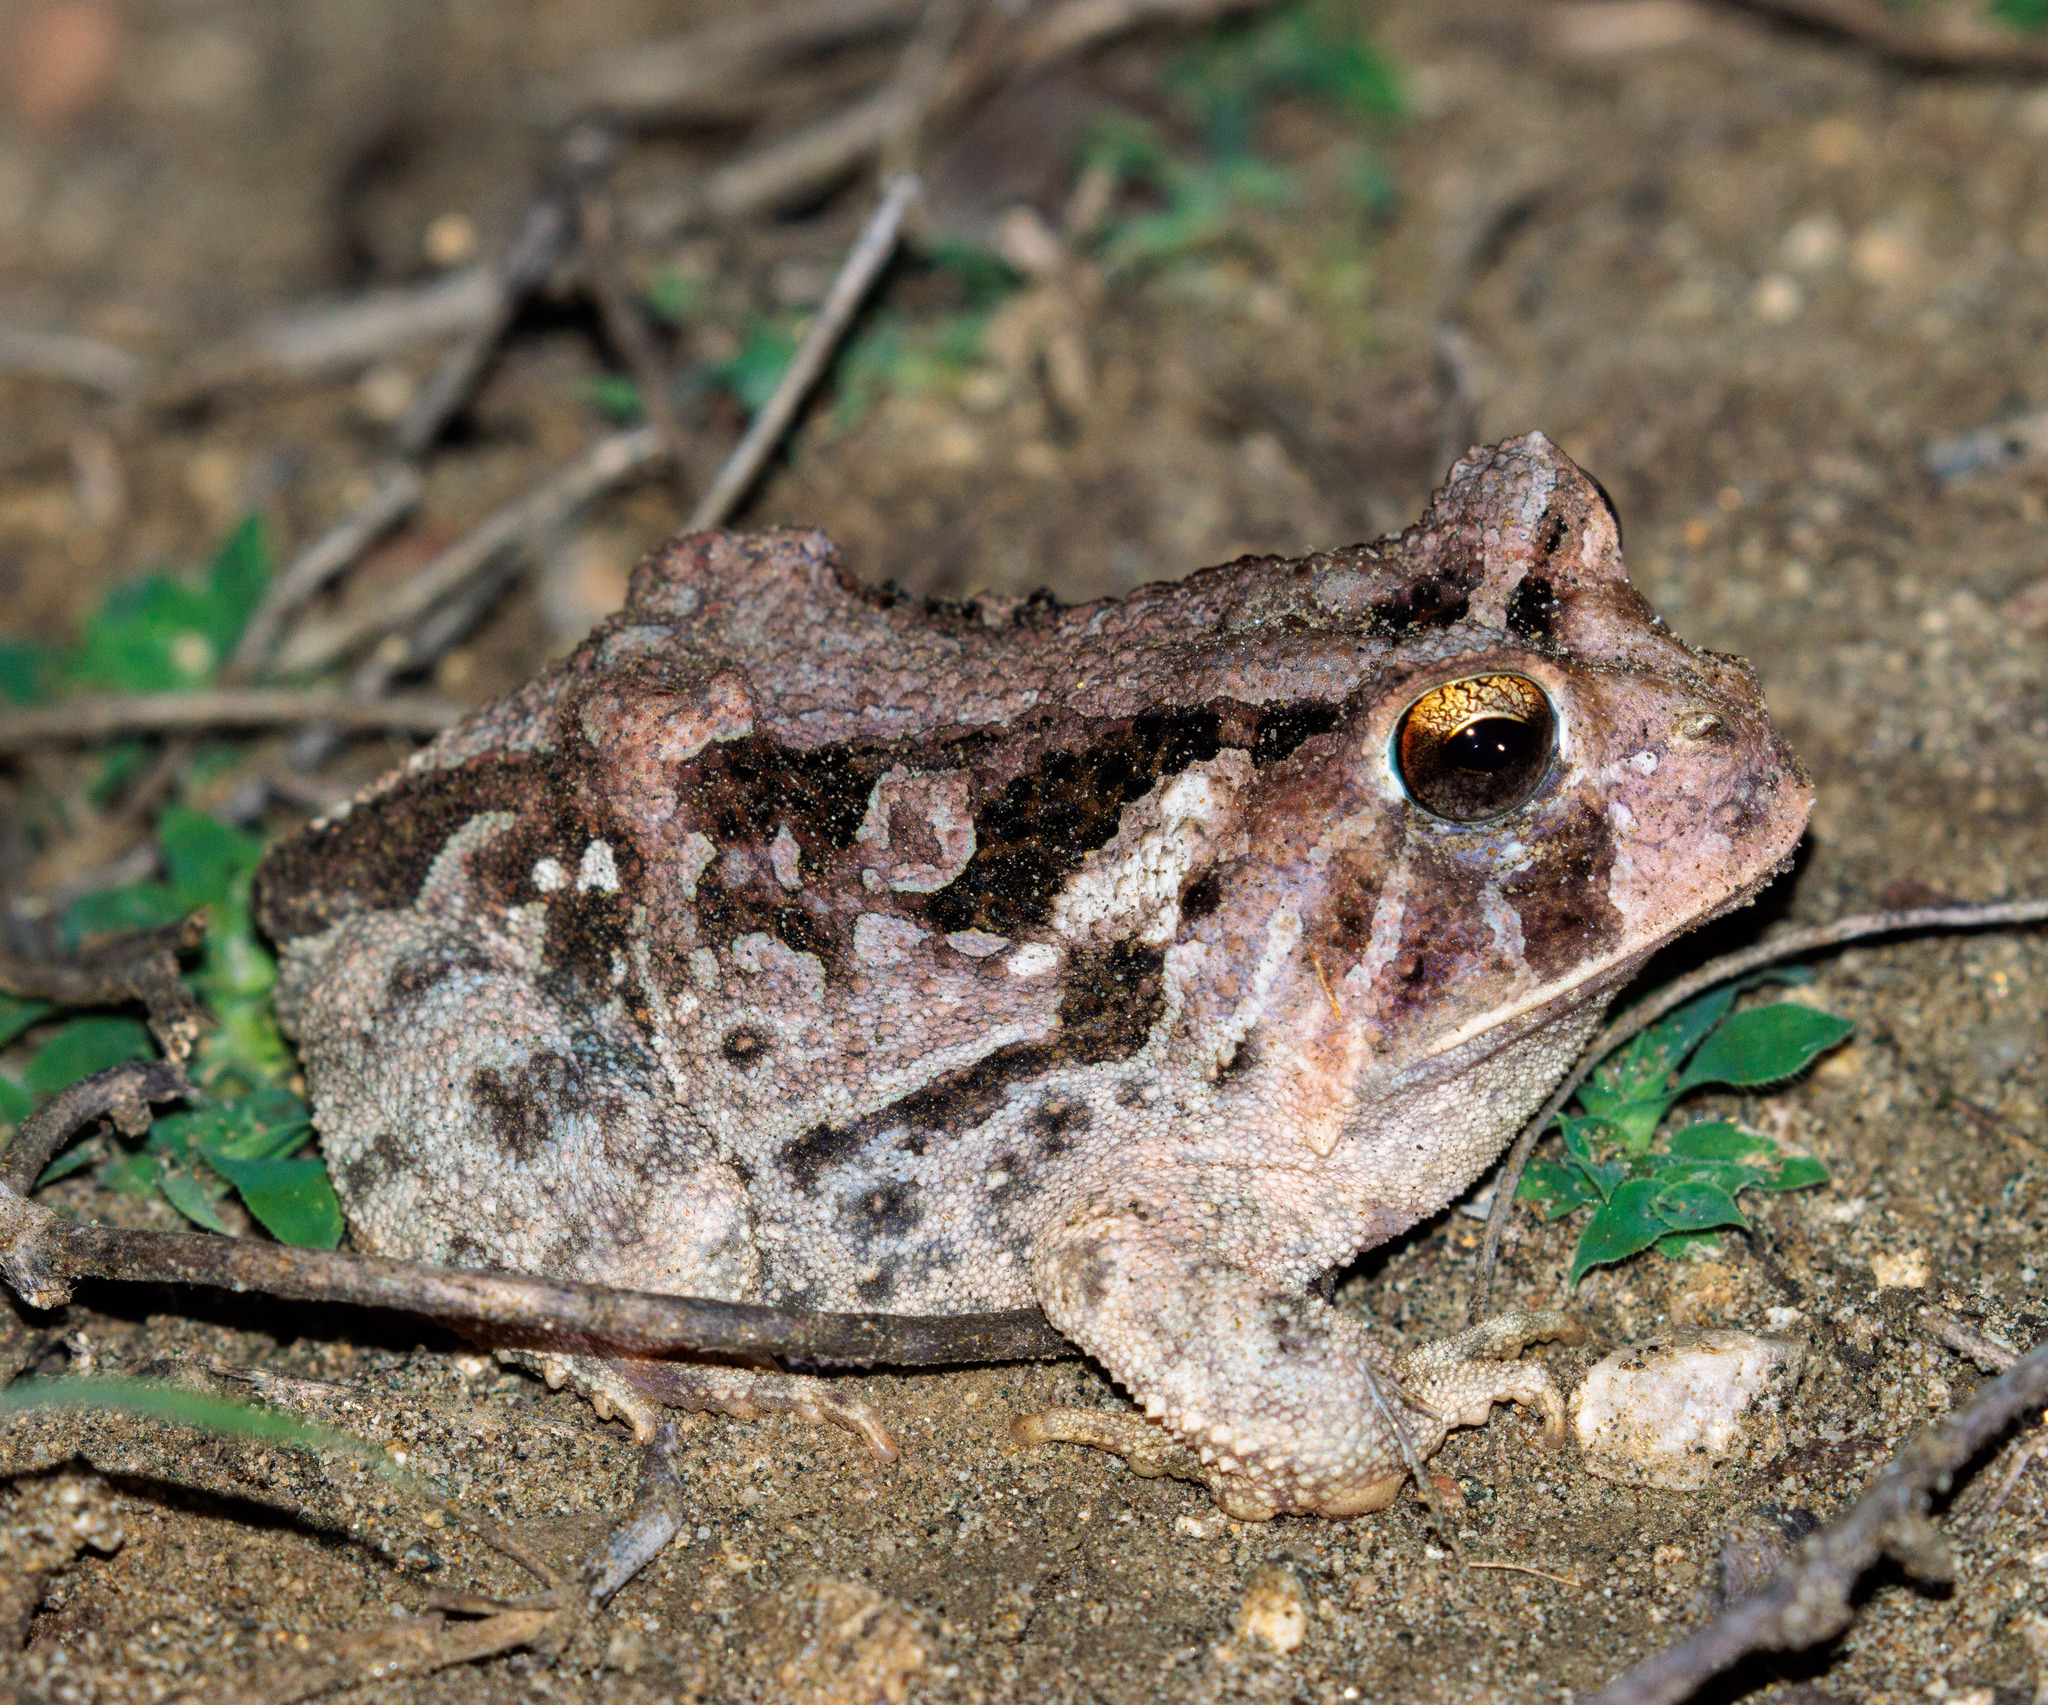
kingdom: Animalia
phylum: Chordata
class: Amphibia
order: Anura
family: Odontophrynidae
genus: Proceratophrys
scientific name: Proceratophrys cristiceps
